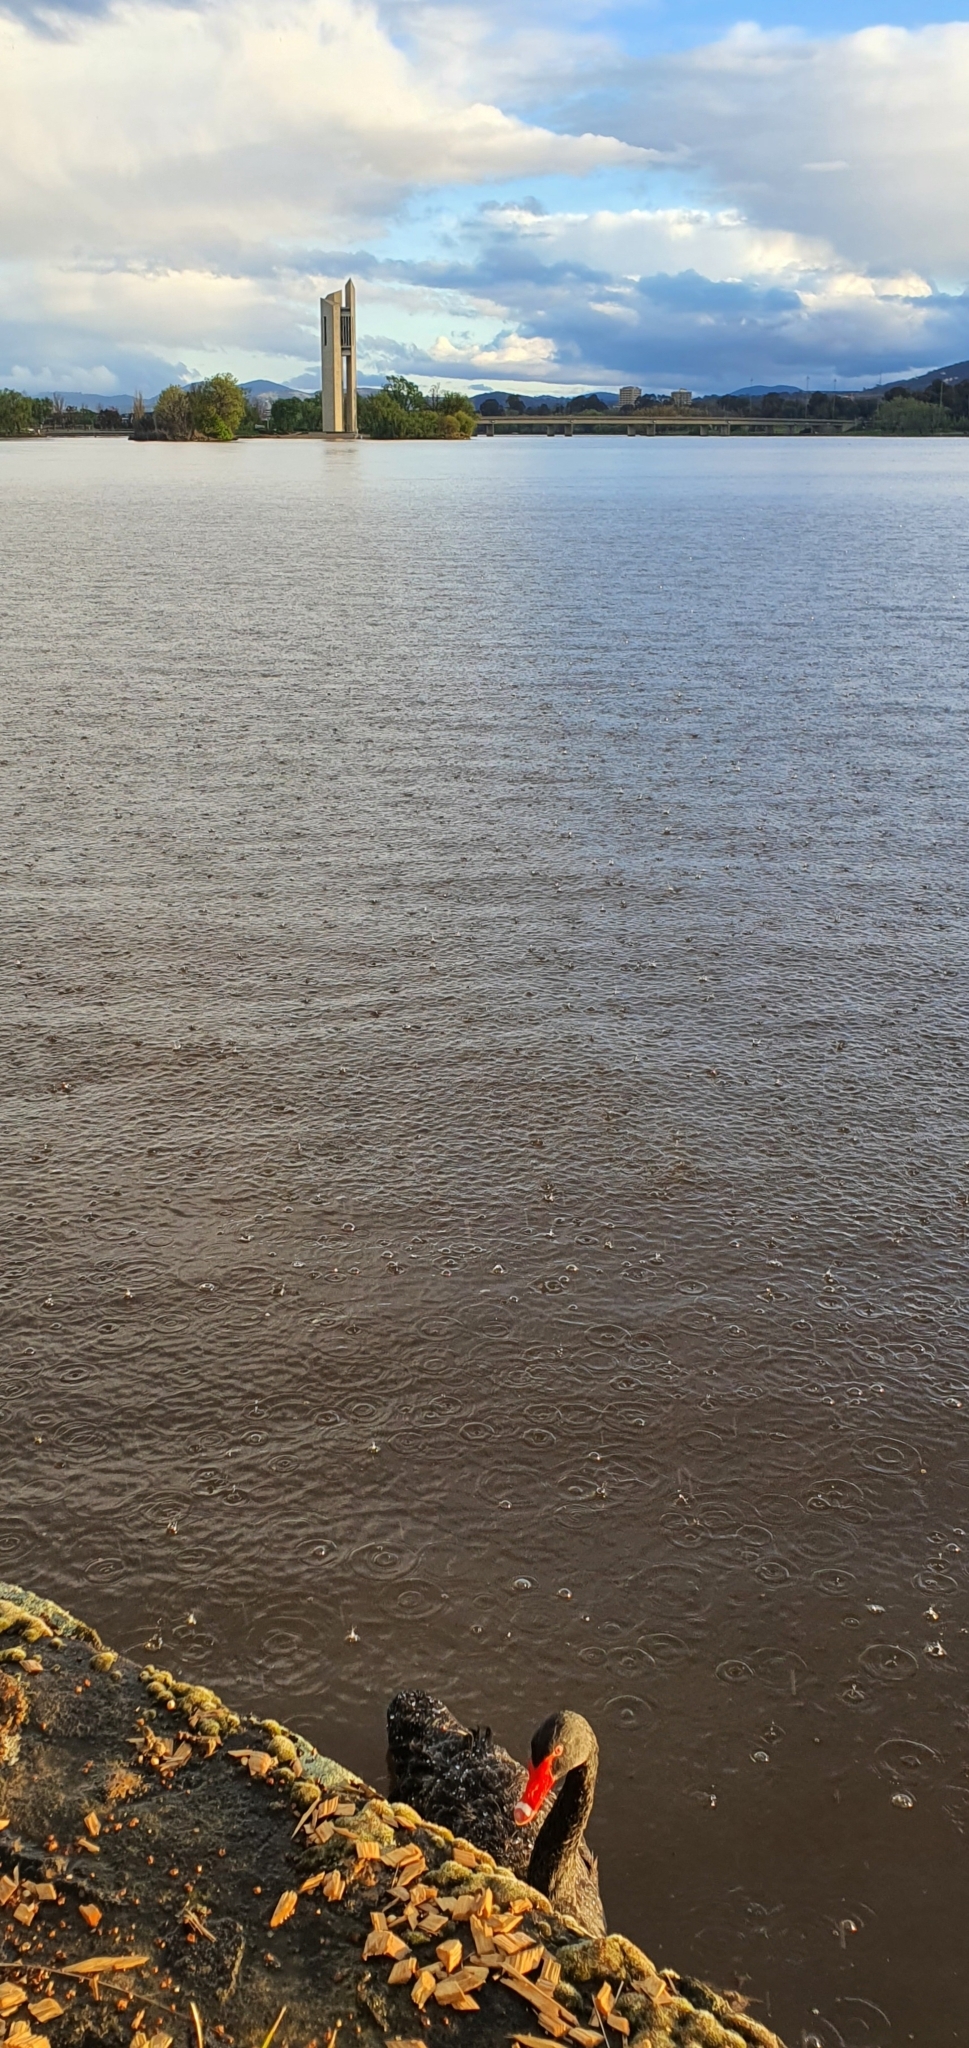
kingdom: Animalia
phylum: Chordata
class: Aves
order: Anseriformes
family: Anatidae
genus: Cygnus
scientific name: Cygnus atratus
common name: Black swan
